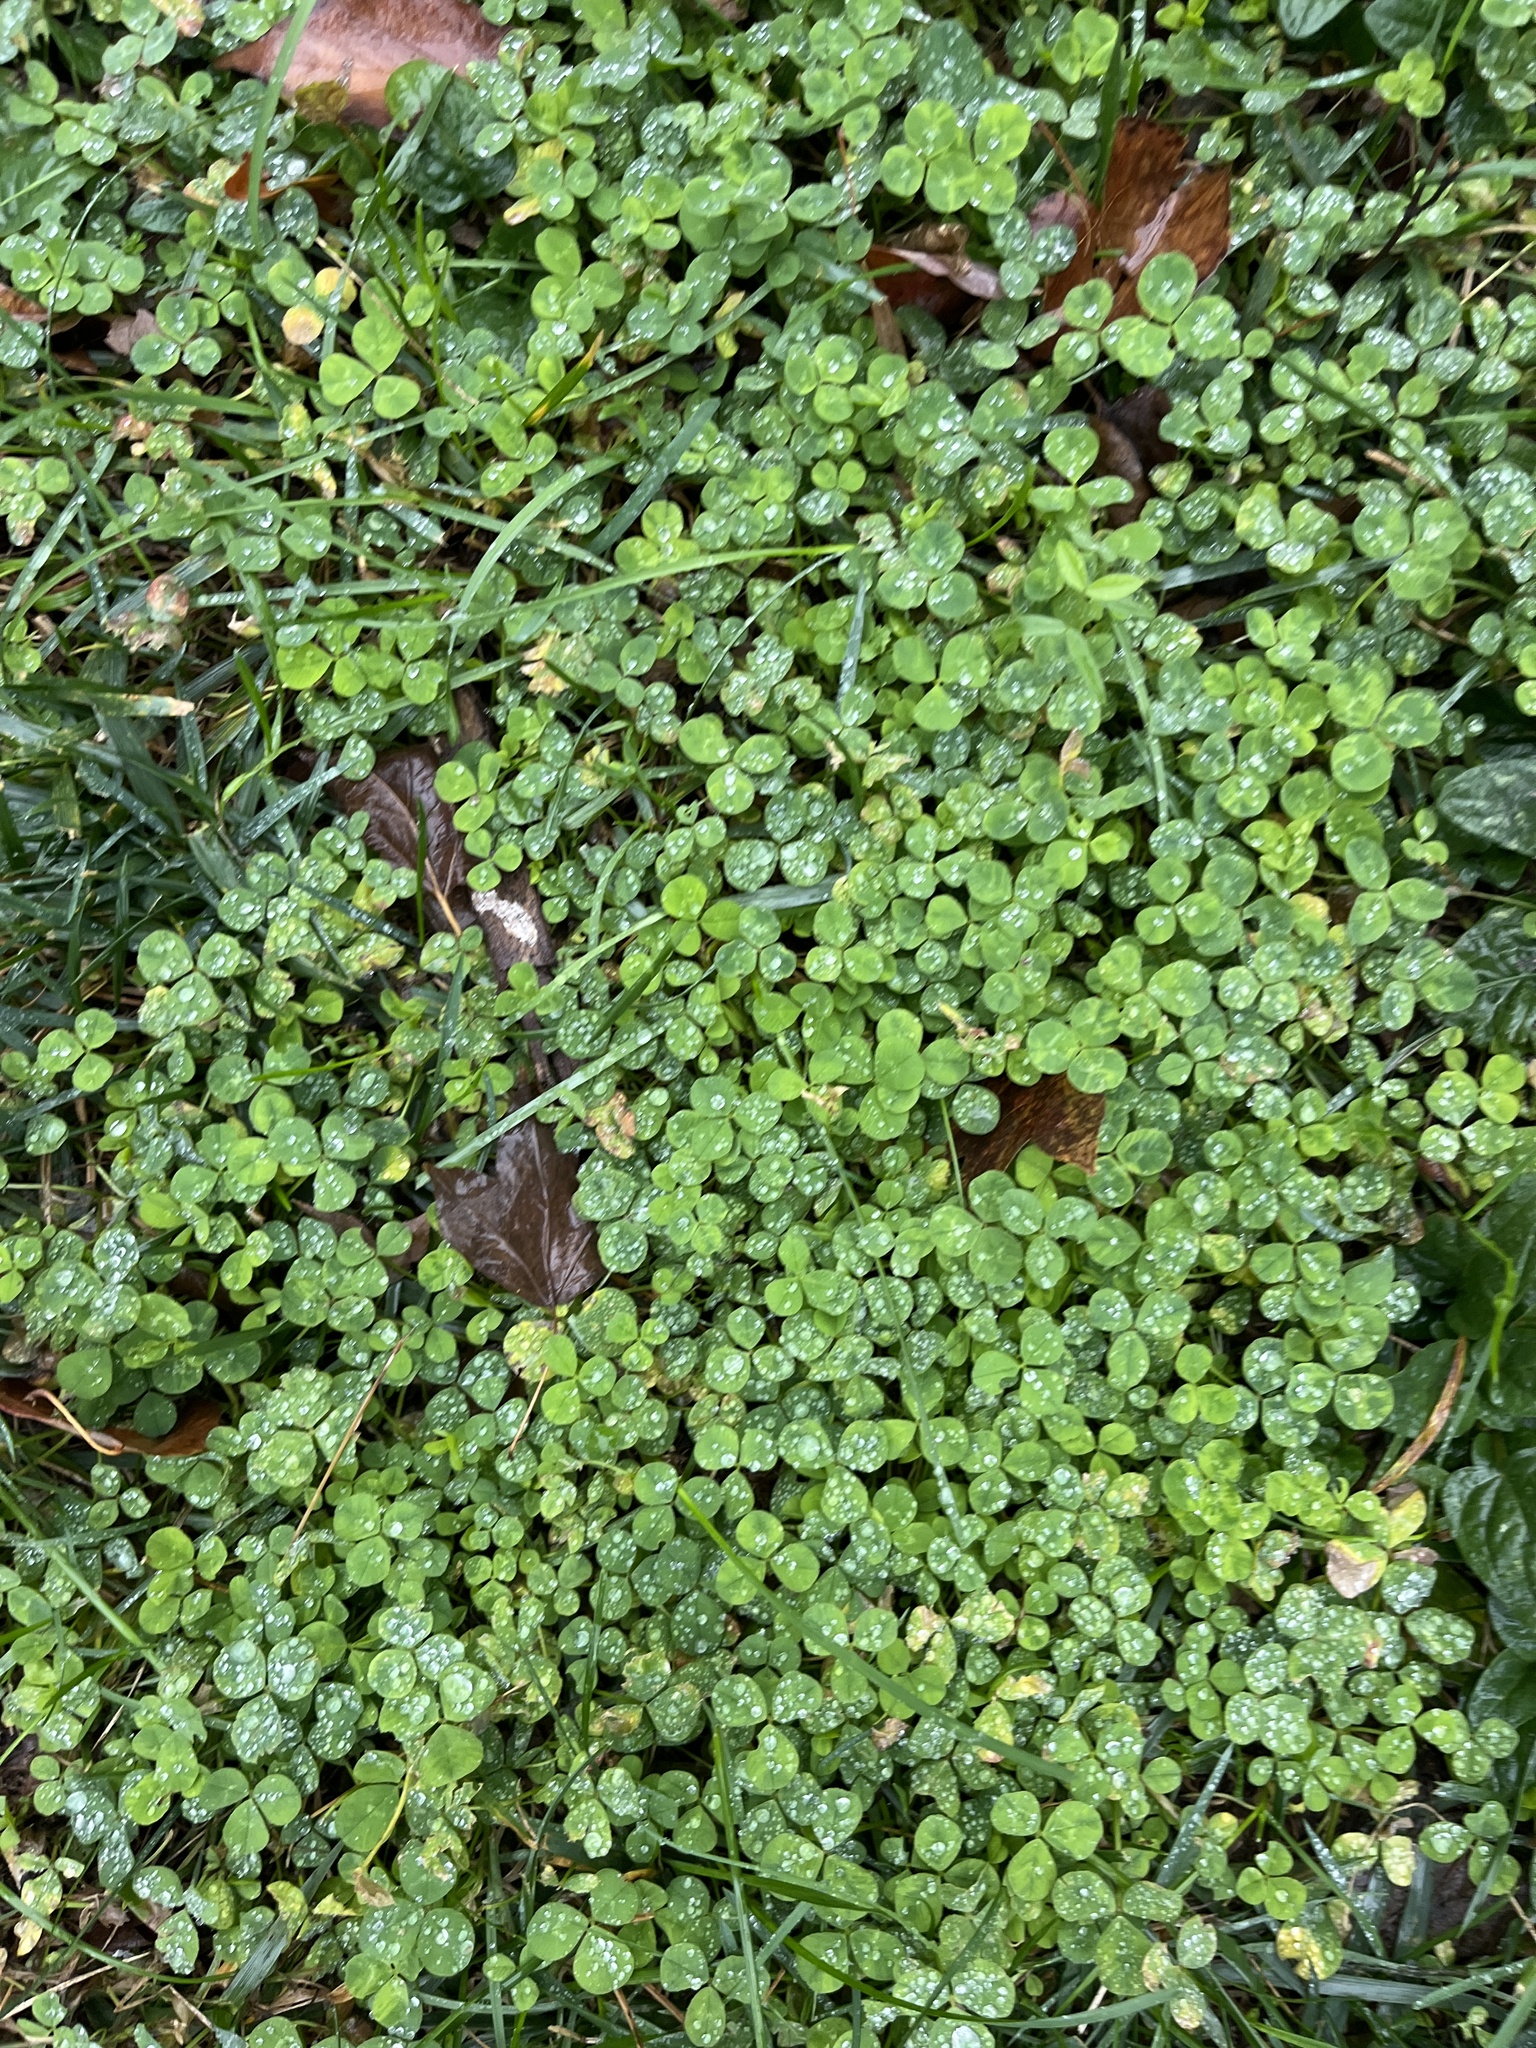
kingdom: Plantae
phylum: Tracheophyta
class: Magnoliopsida
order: Fabales
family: Fabaceae
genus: Trifolium
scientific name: Trifolium repens
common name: White clover
